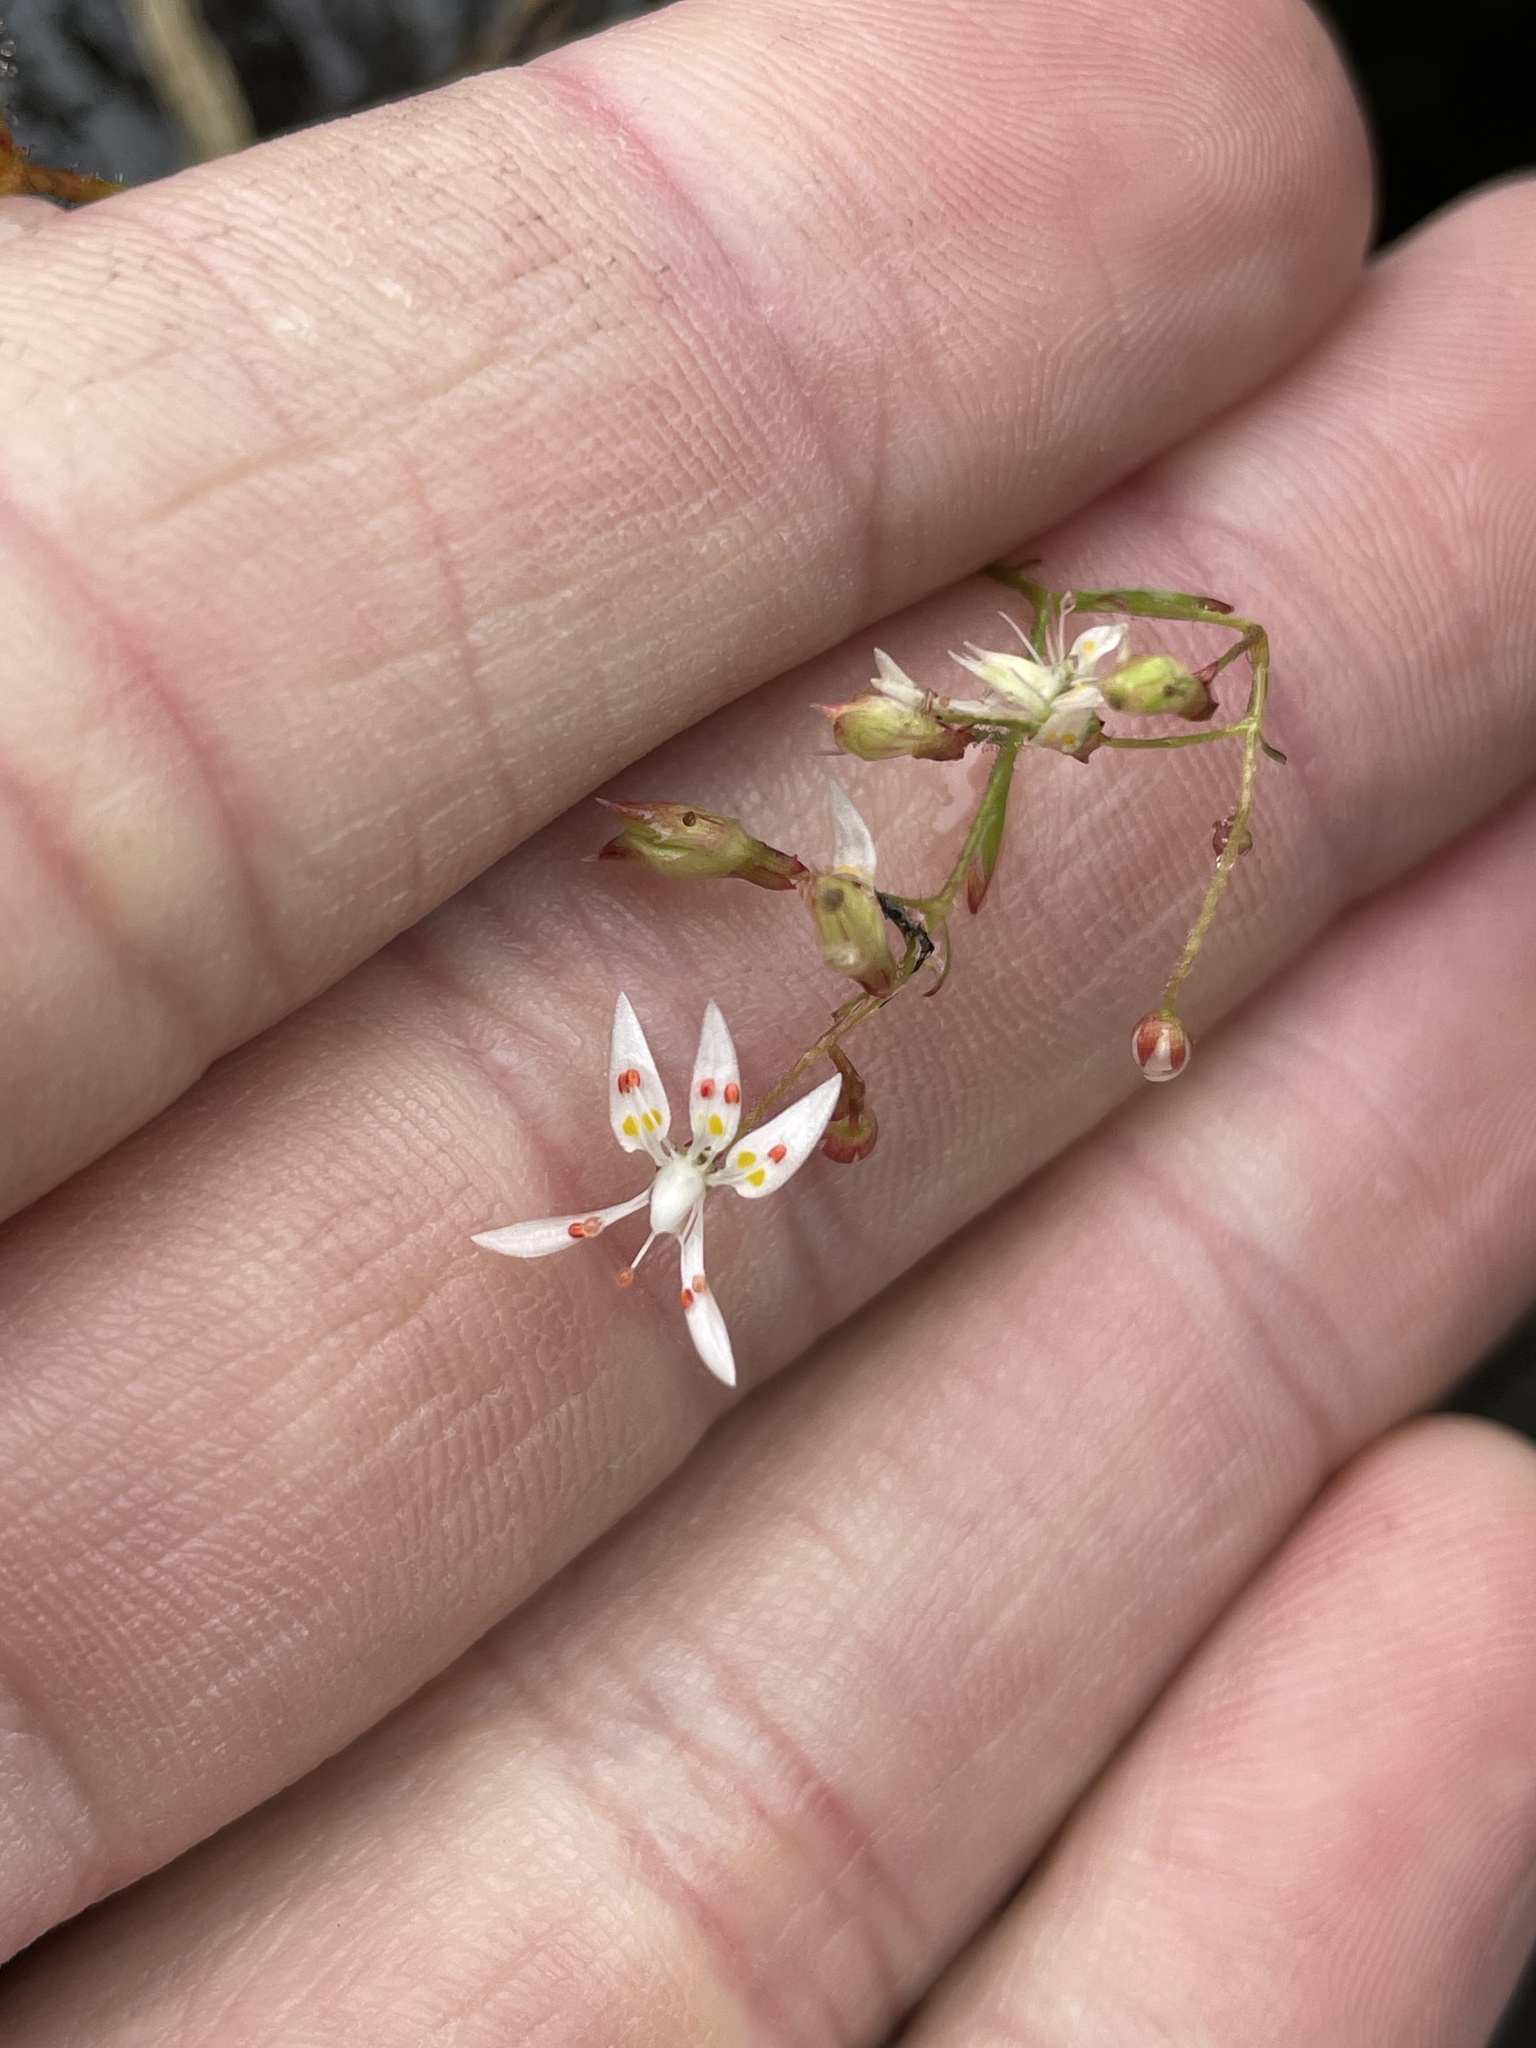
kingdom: Plantae
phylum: Tracheophyta
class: Magnoliopsida
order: Saxifragales
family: Saxifragaceae
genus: Micranthes
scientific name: Micranthes petiolaris
